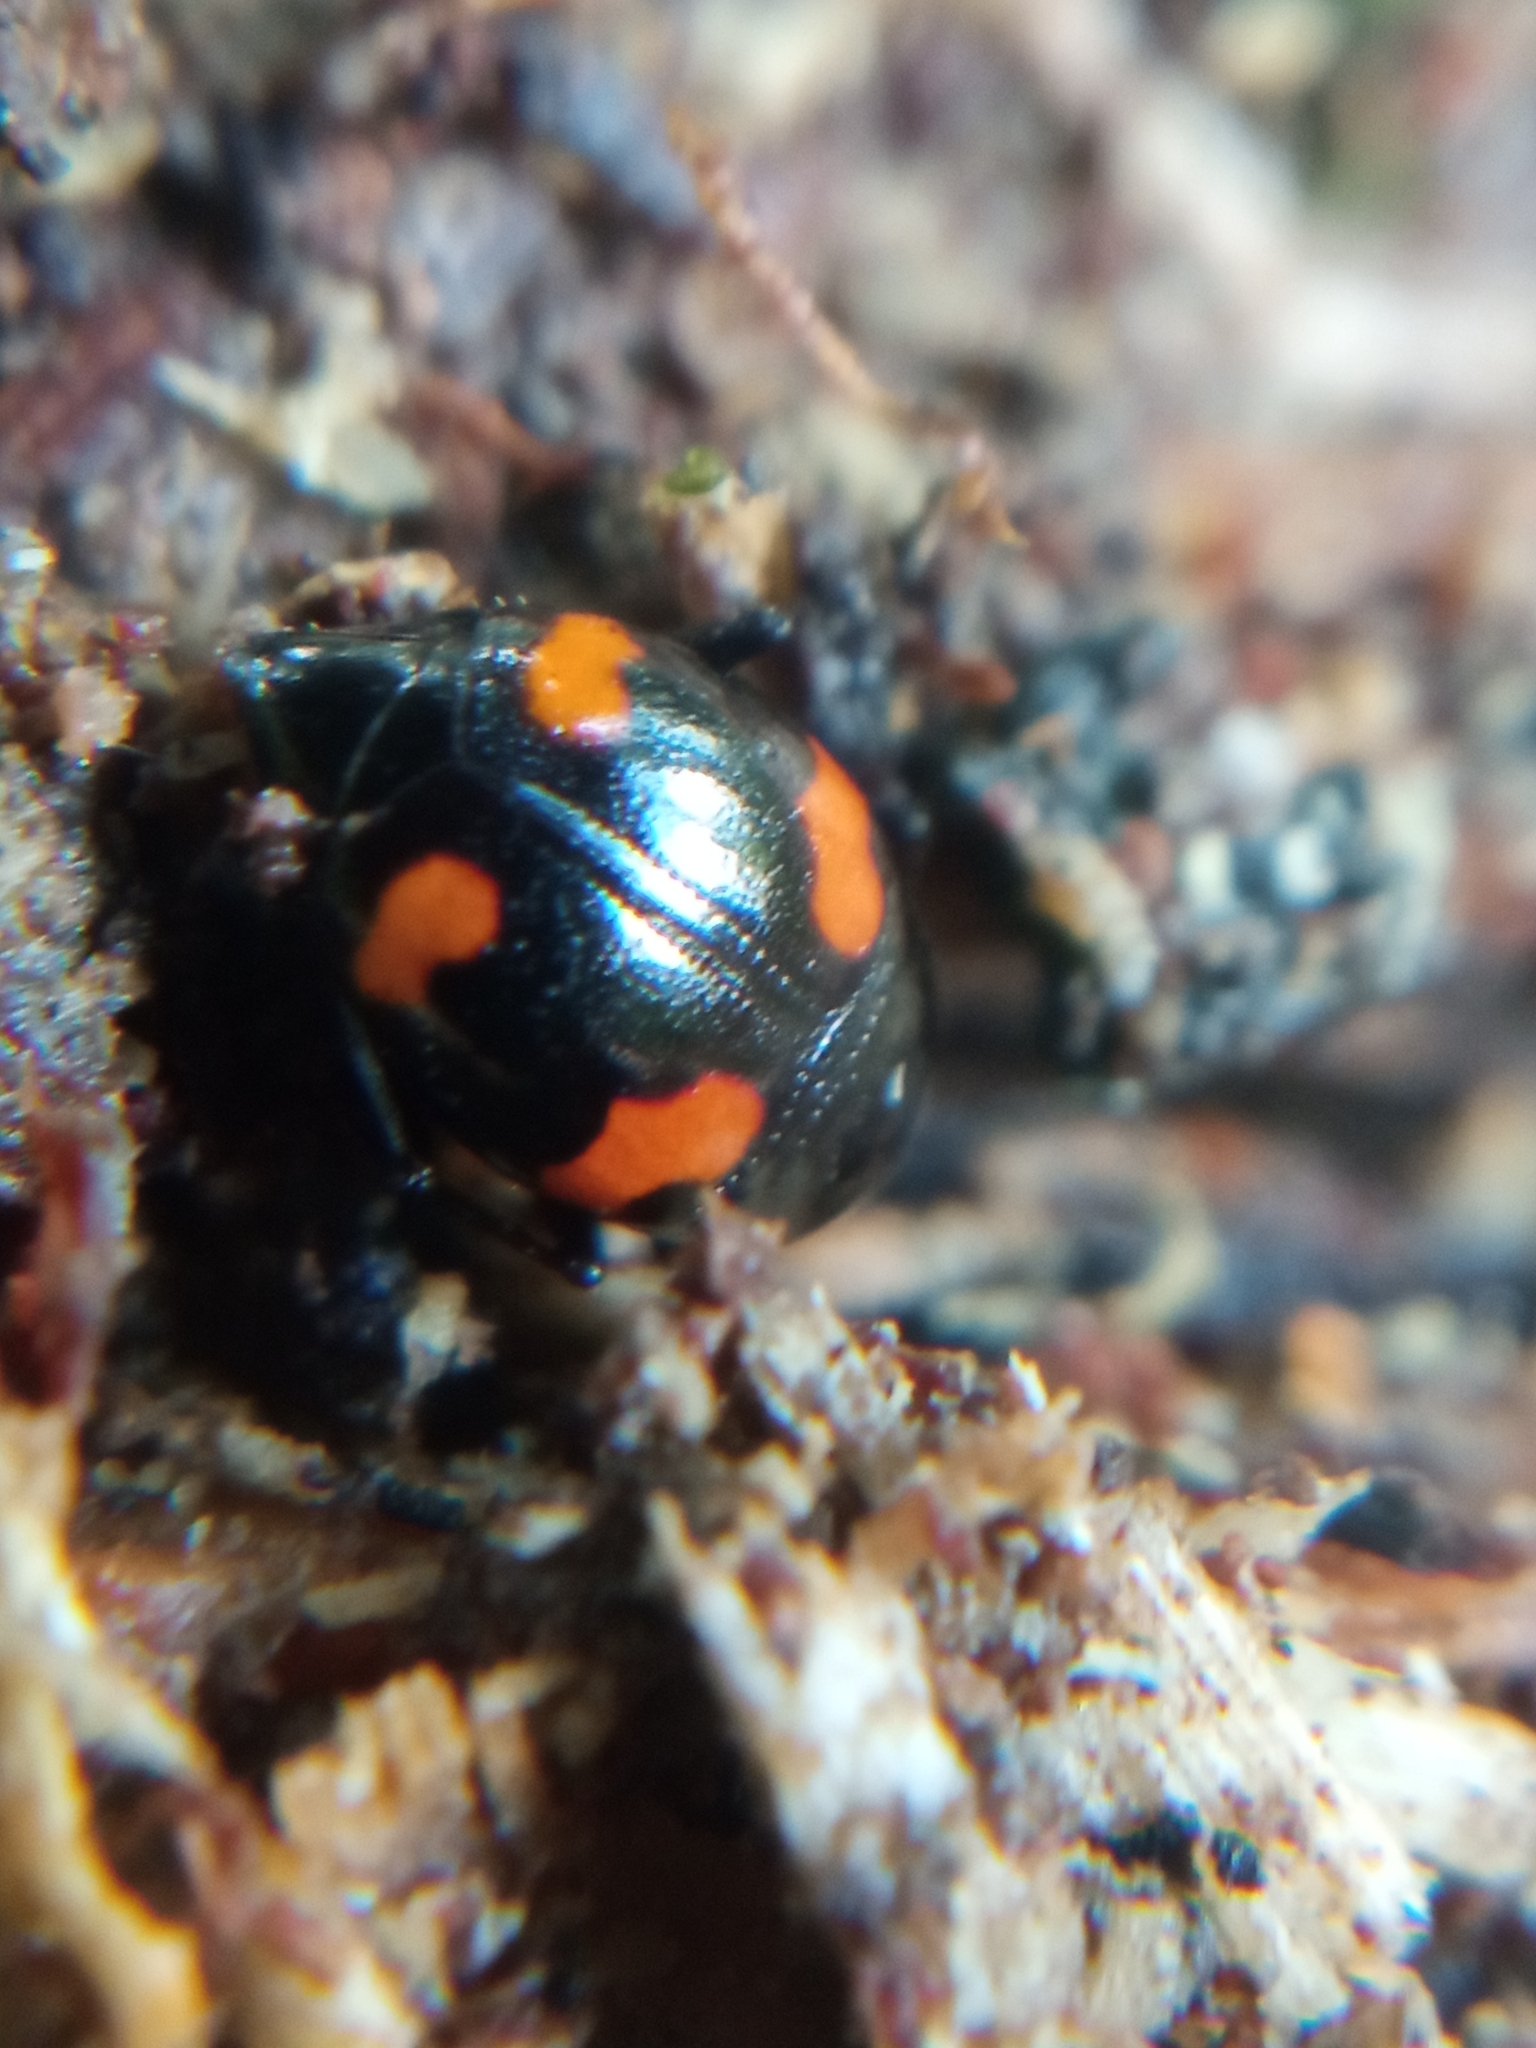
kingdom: Animalia
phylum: Arthropoda
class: Insecta
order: Coleoptera
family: Staphylinidae
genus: Scaphidium
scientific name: Scaphidium quadrimaculatum
